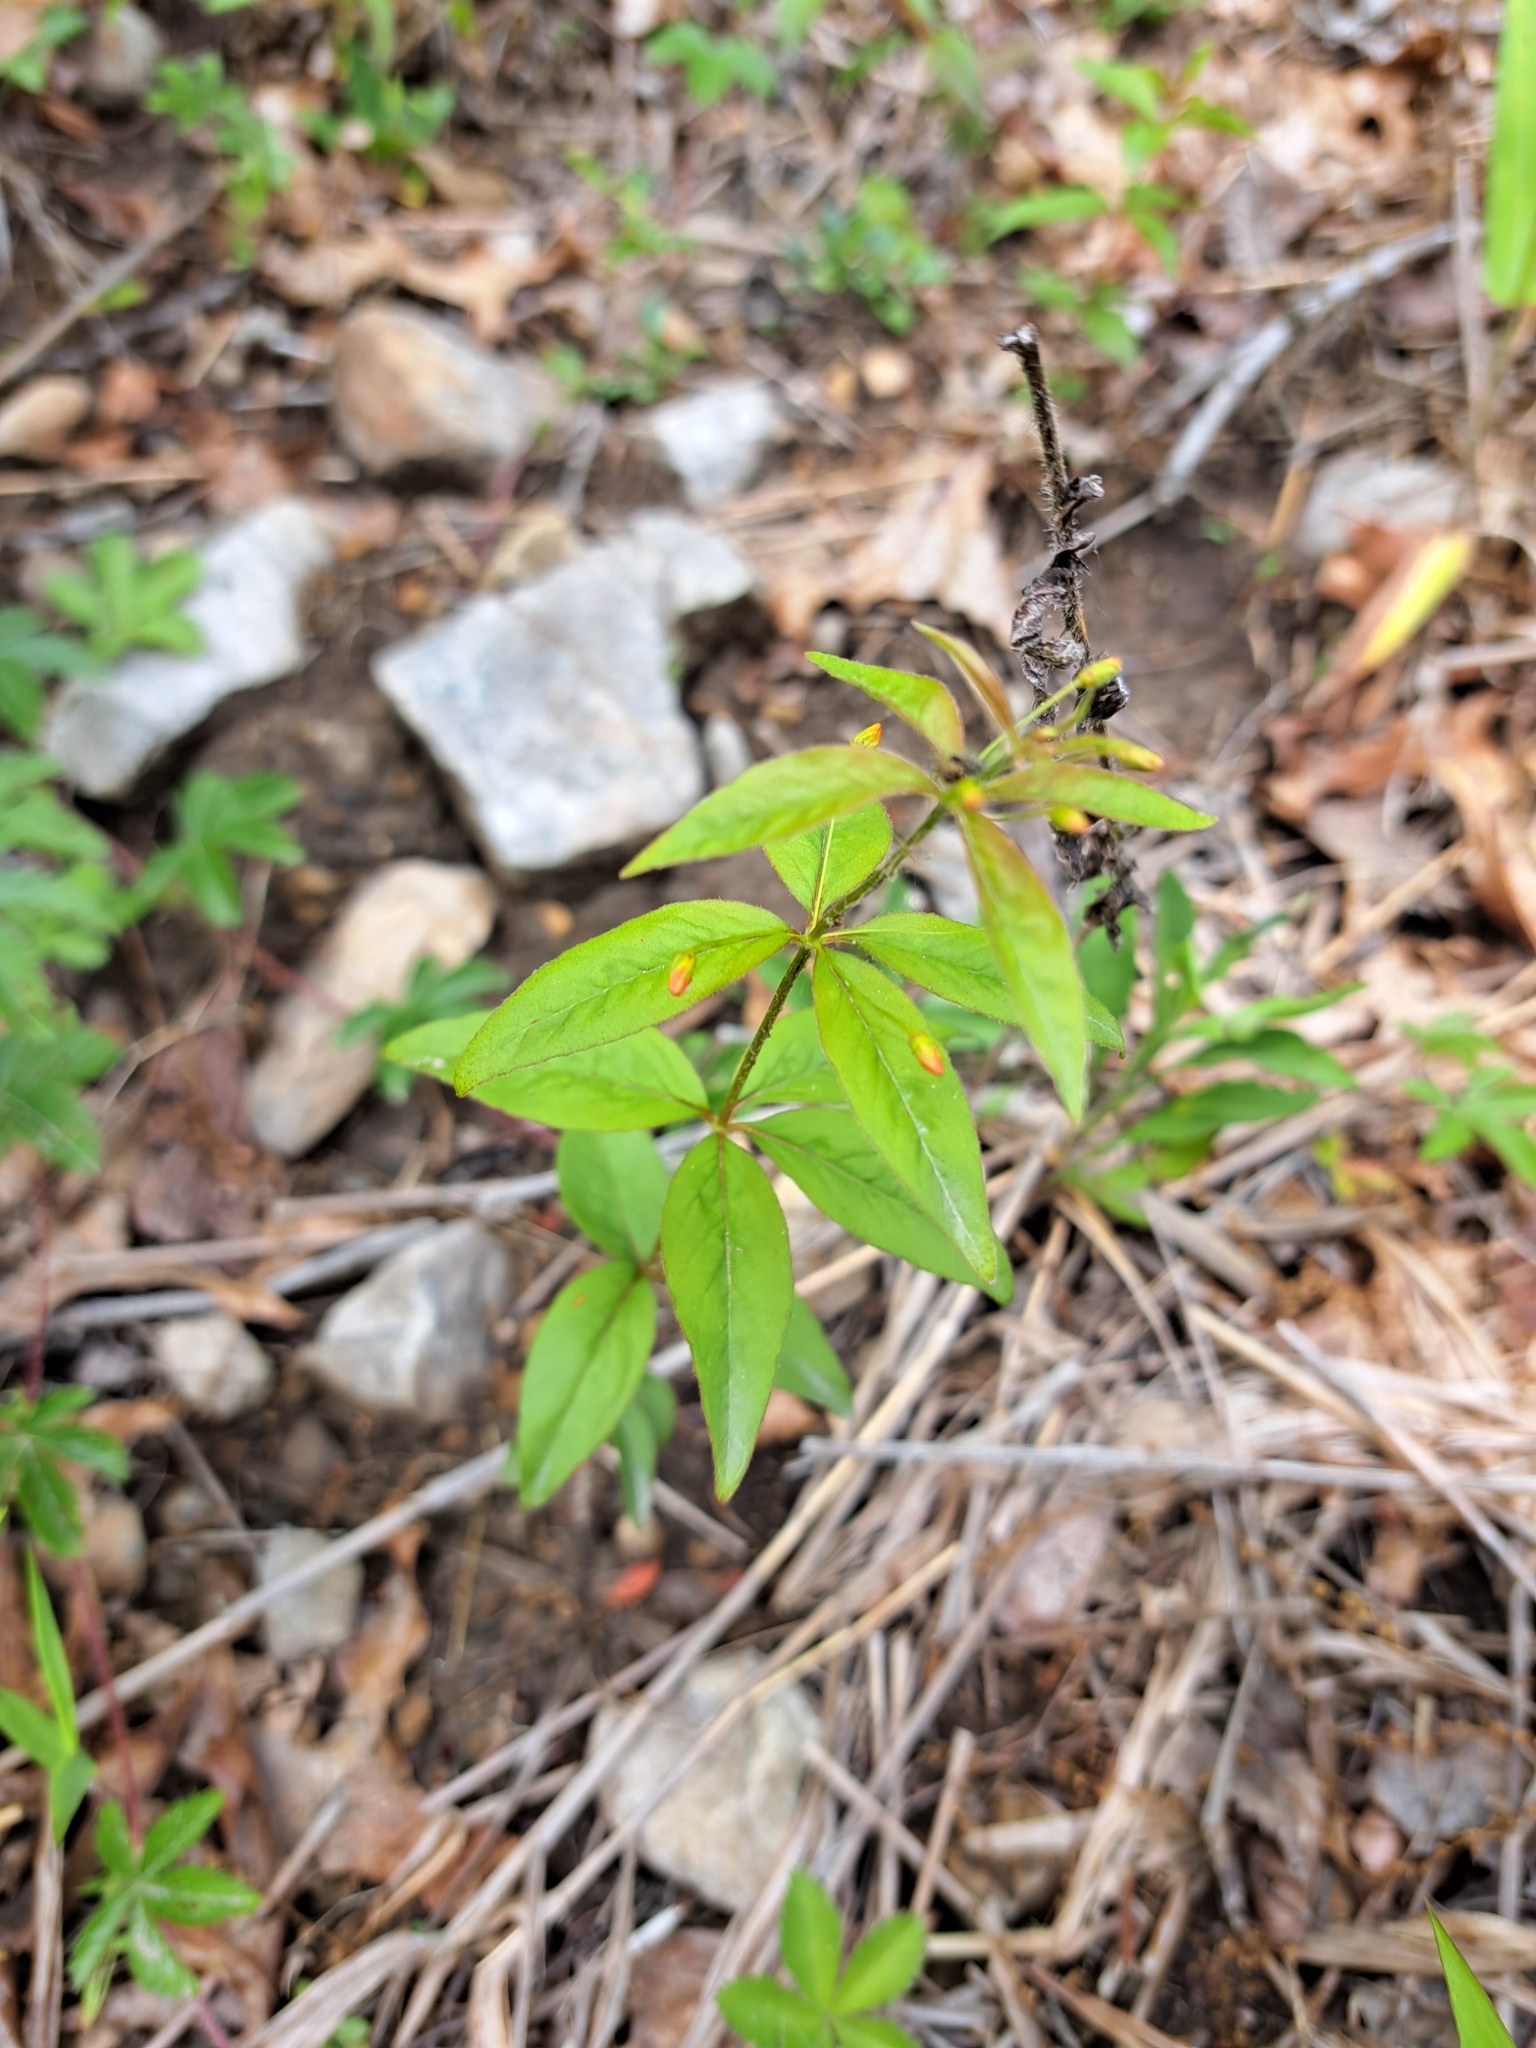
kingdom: Plantae
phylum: Tracheophyta
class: Magnoliopsida
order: Ericales
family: Primulaceae
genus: Lysimachia
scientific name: Lysimachia quadrifolia
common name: Whorled loosestrife
